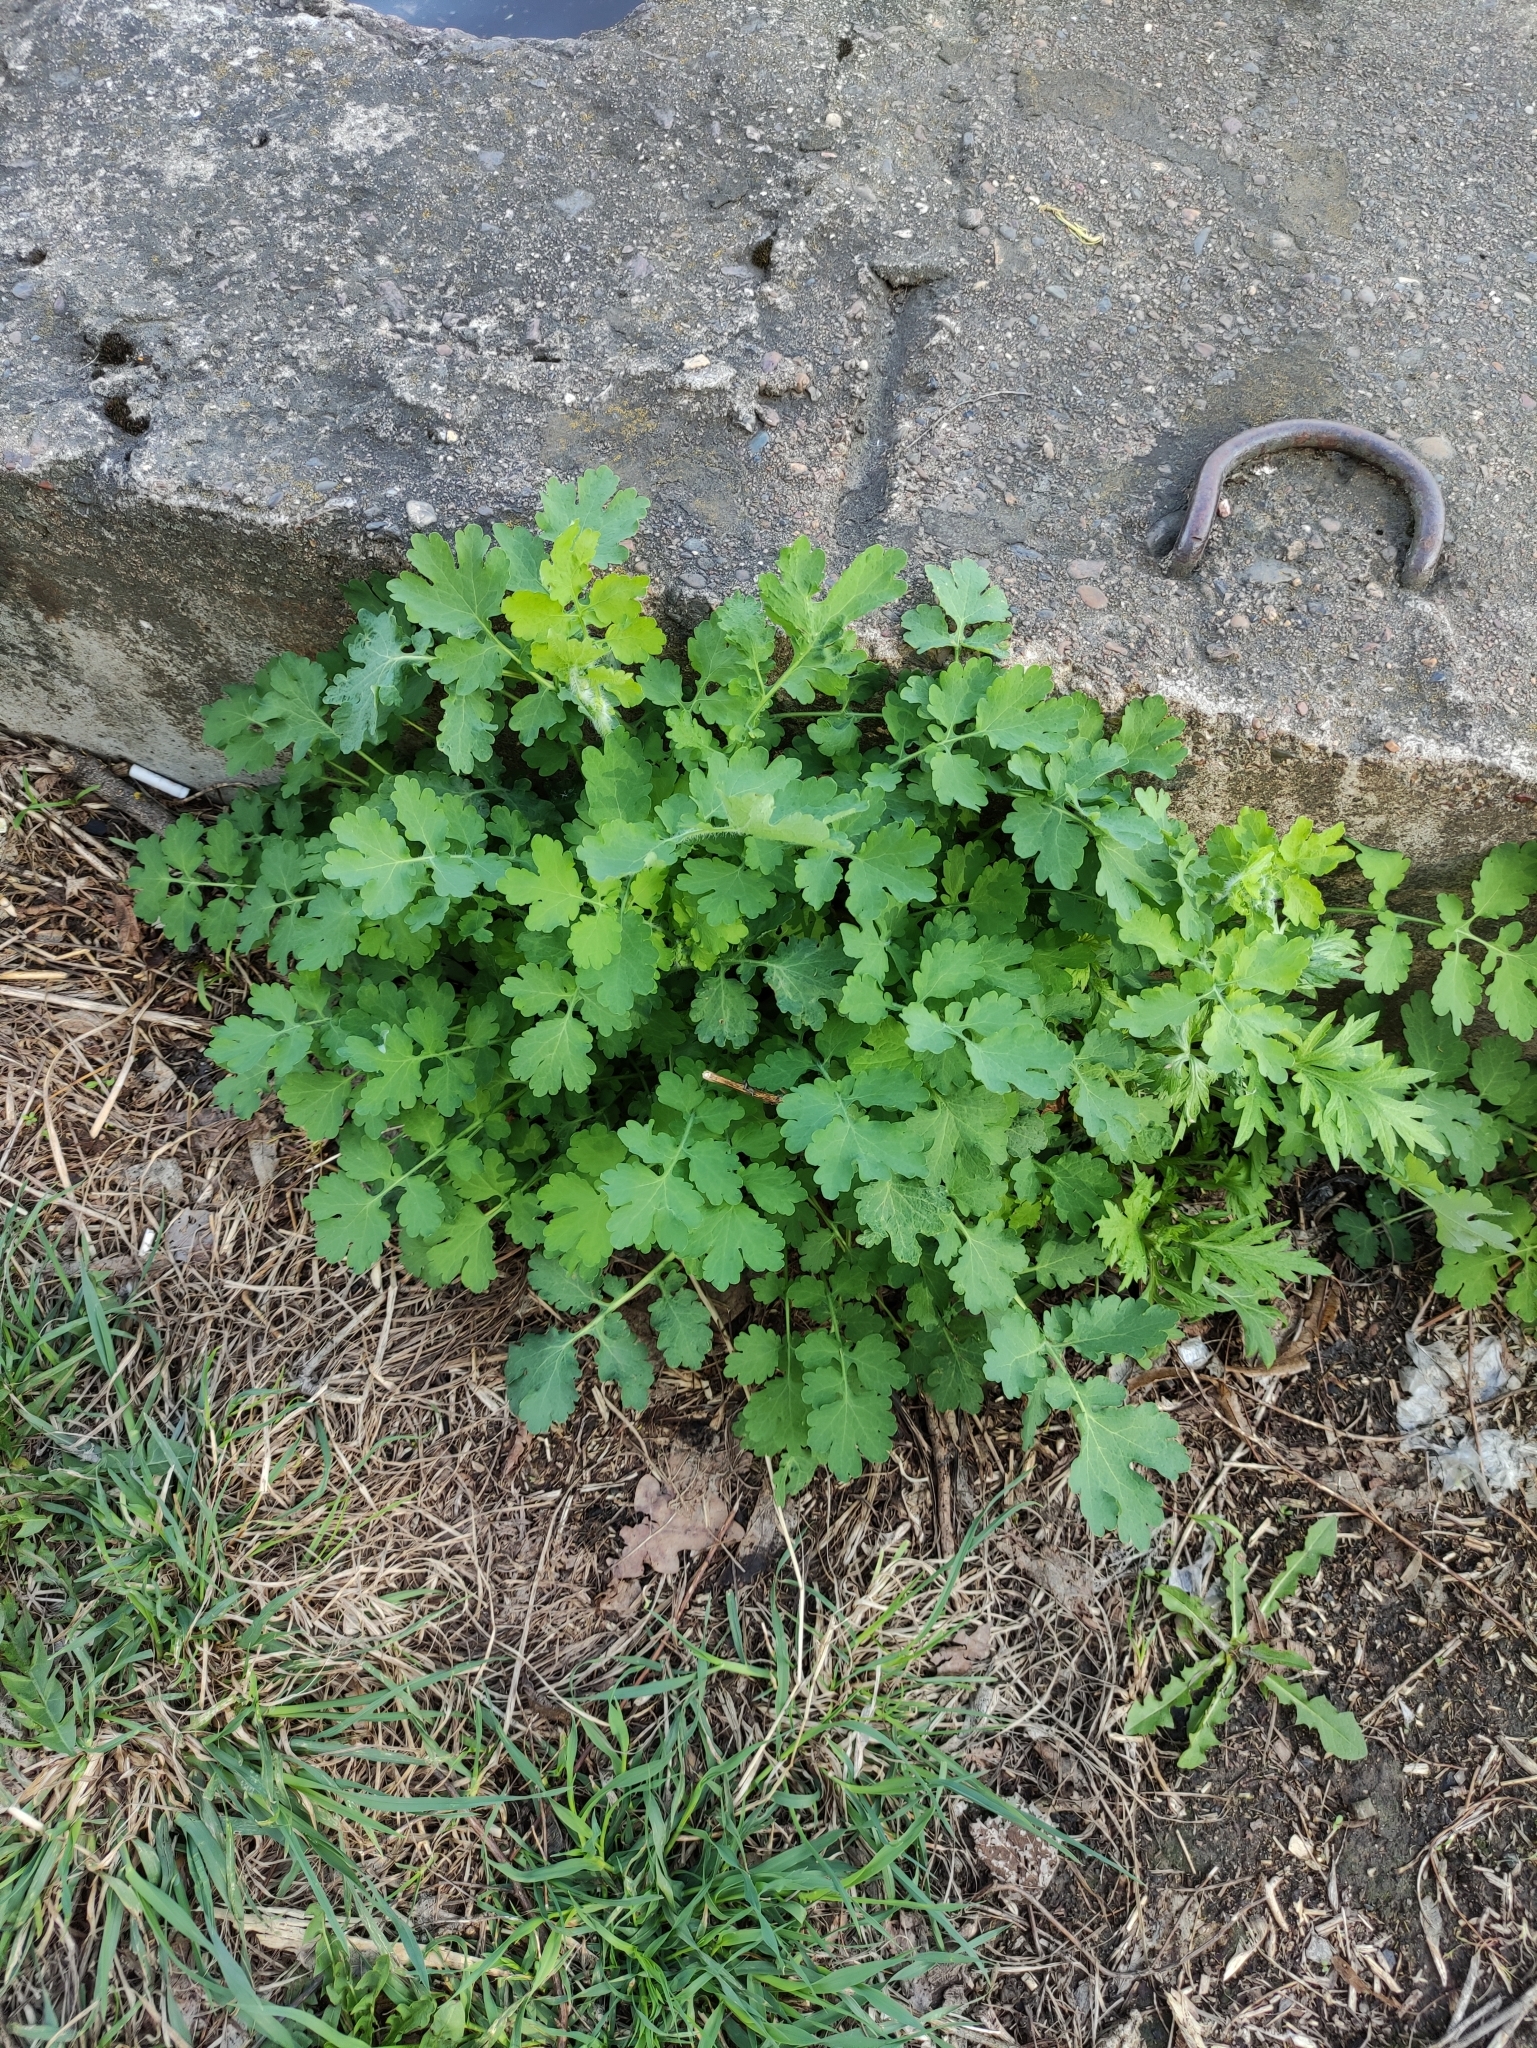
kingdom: Plantae
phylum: Tracheophyta
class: Magnoliopsida
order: Ranunculales
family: Papaveraceae
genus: Chelidonium
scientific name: Chelidonium majus
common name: Greater celandine
